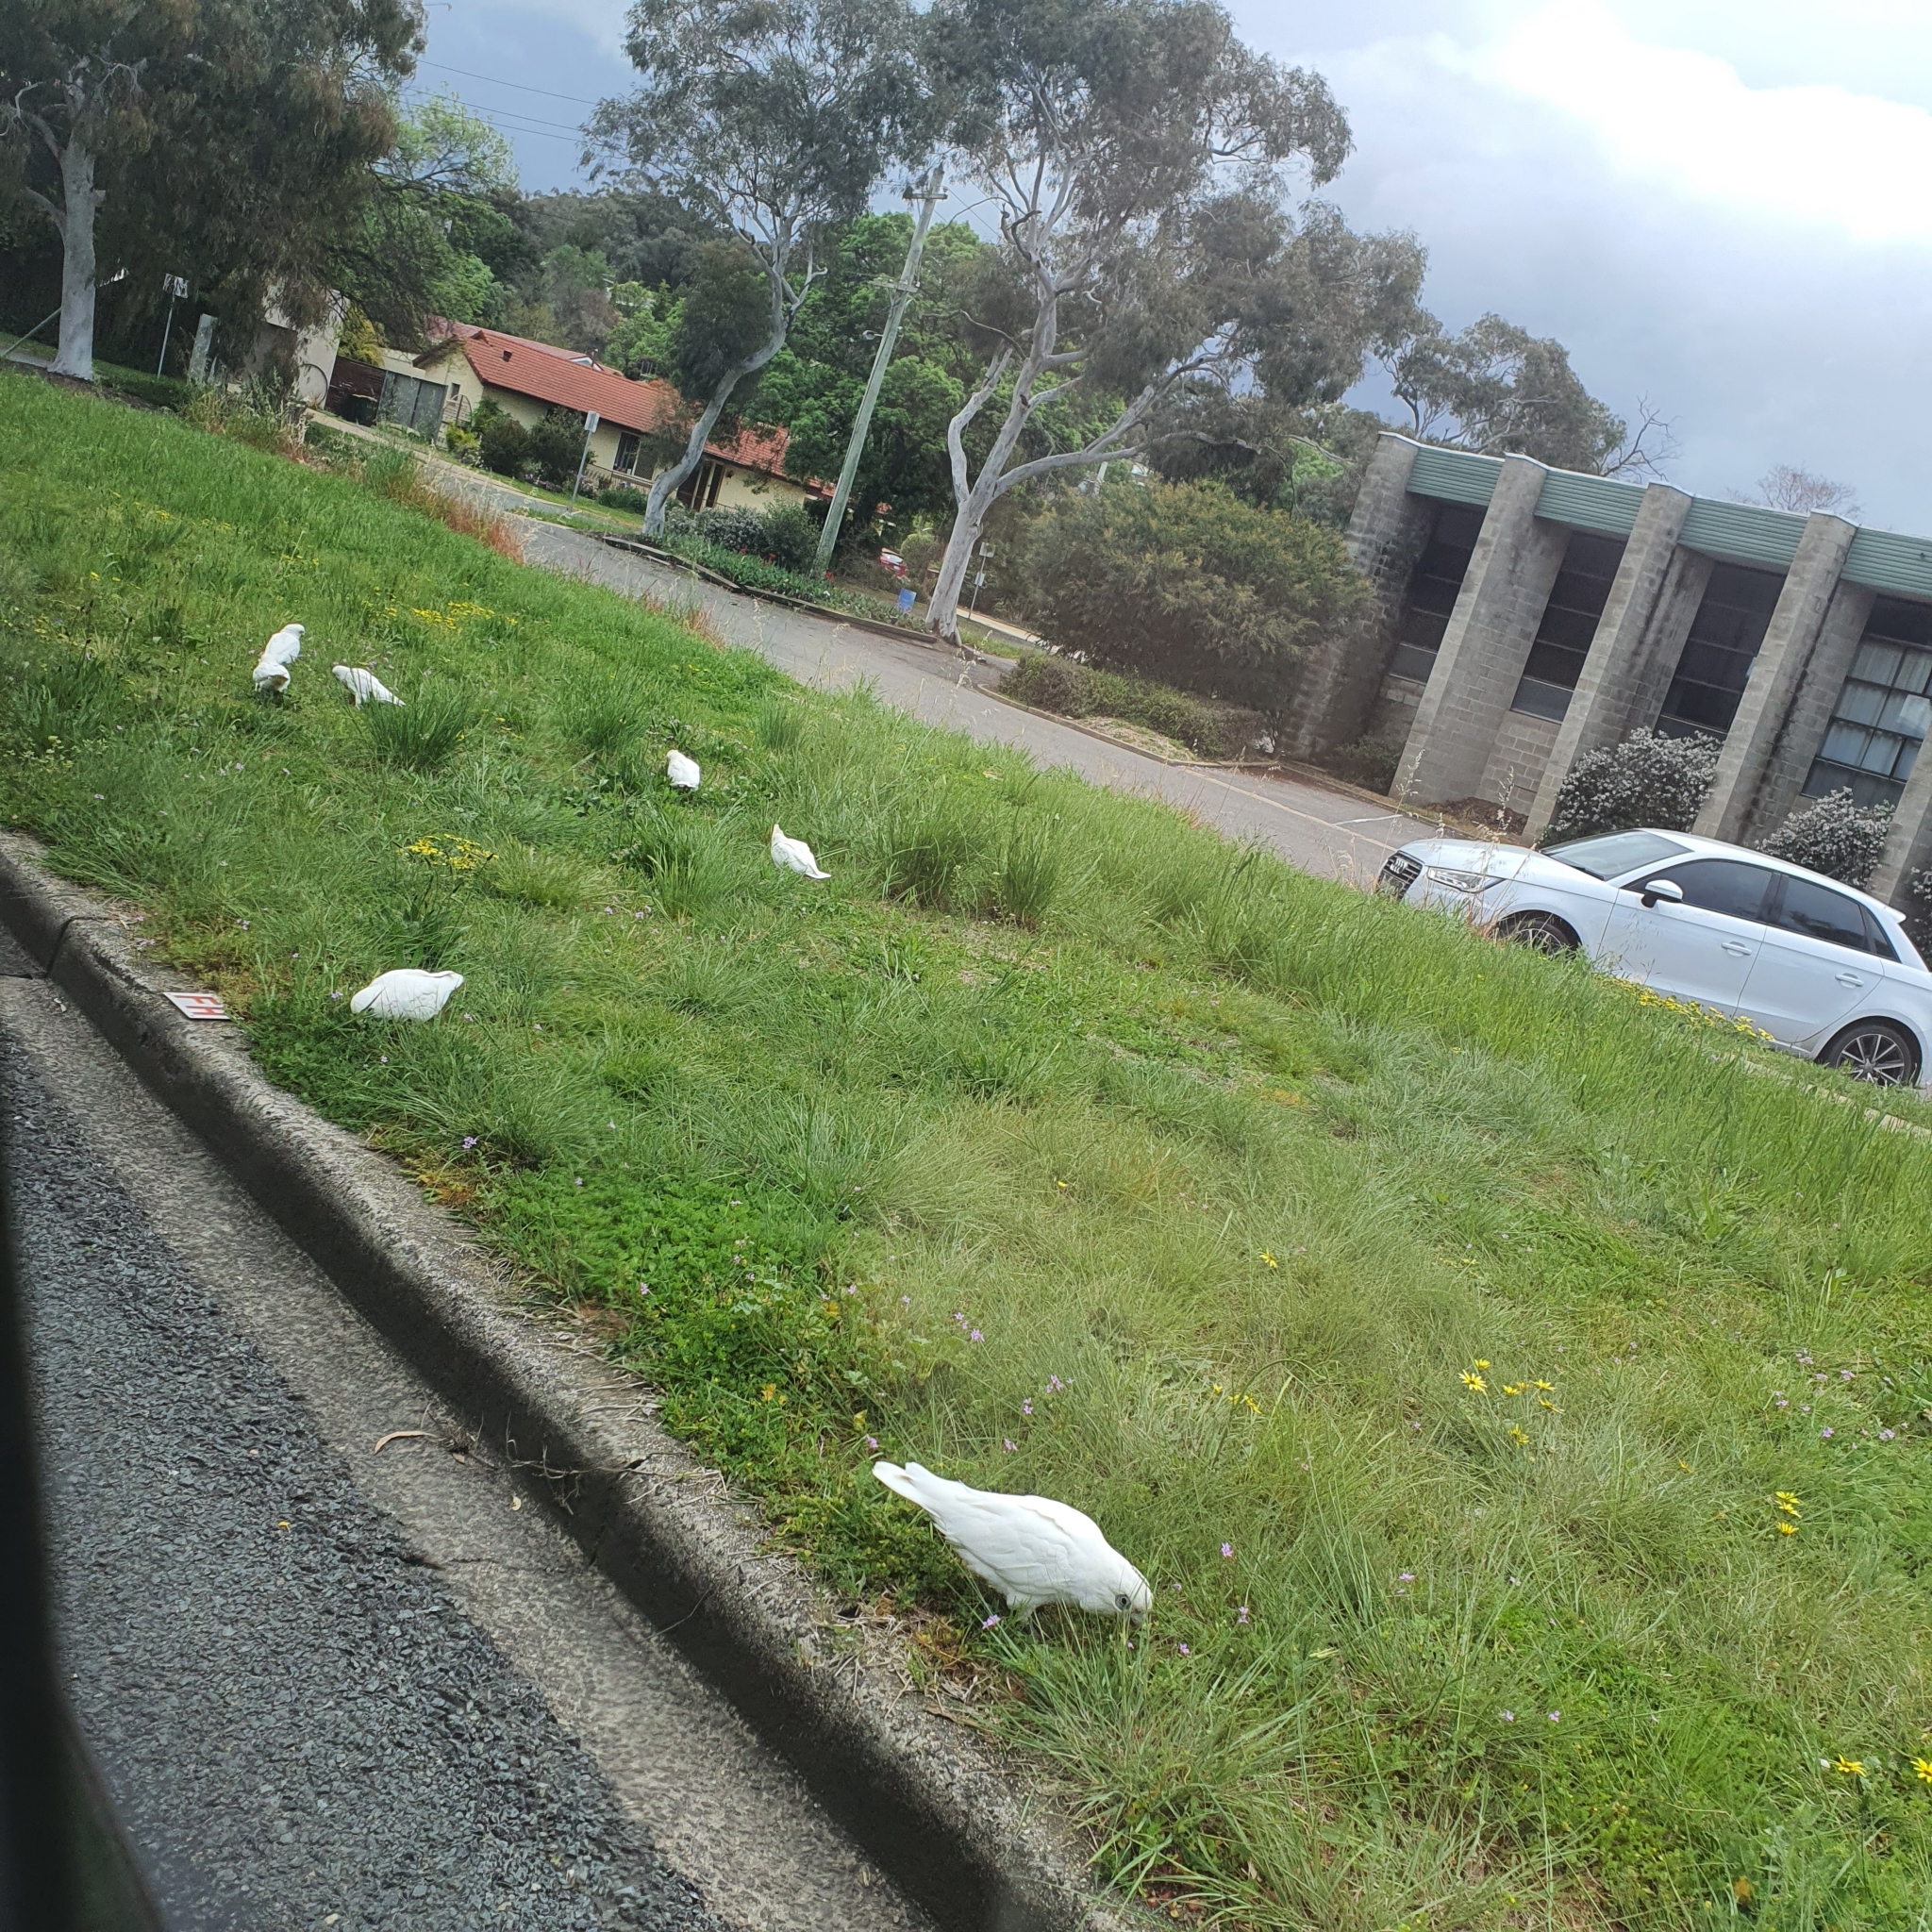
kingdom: Animalia
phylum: Chordata
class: Aves
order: Psittaciformes
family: Psittacidae
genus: Cacatua
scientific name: Cacatua sanguinea
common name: Little corella
